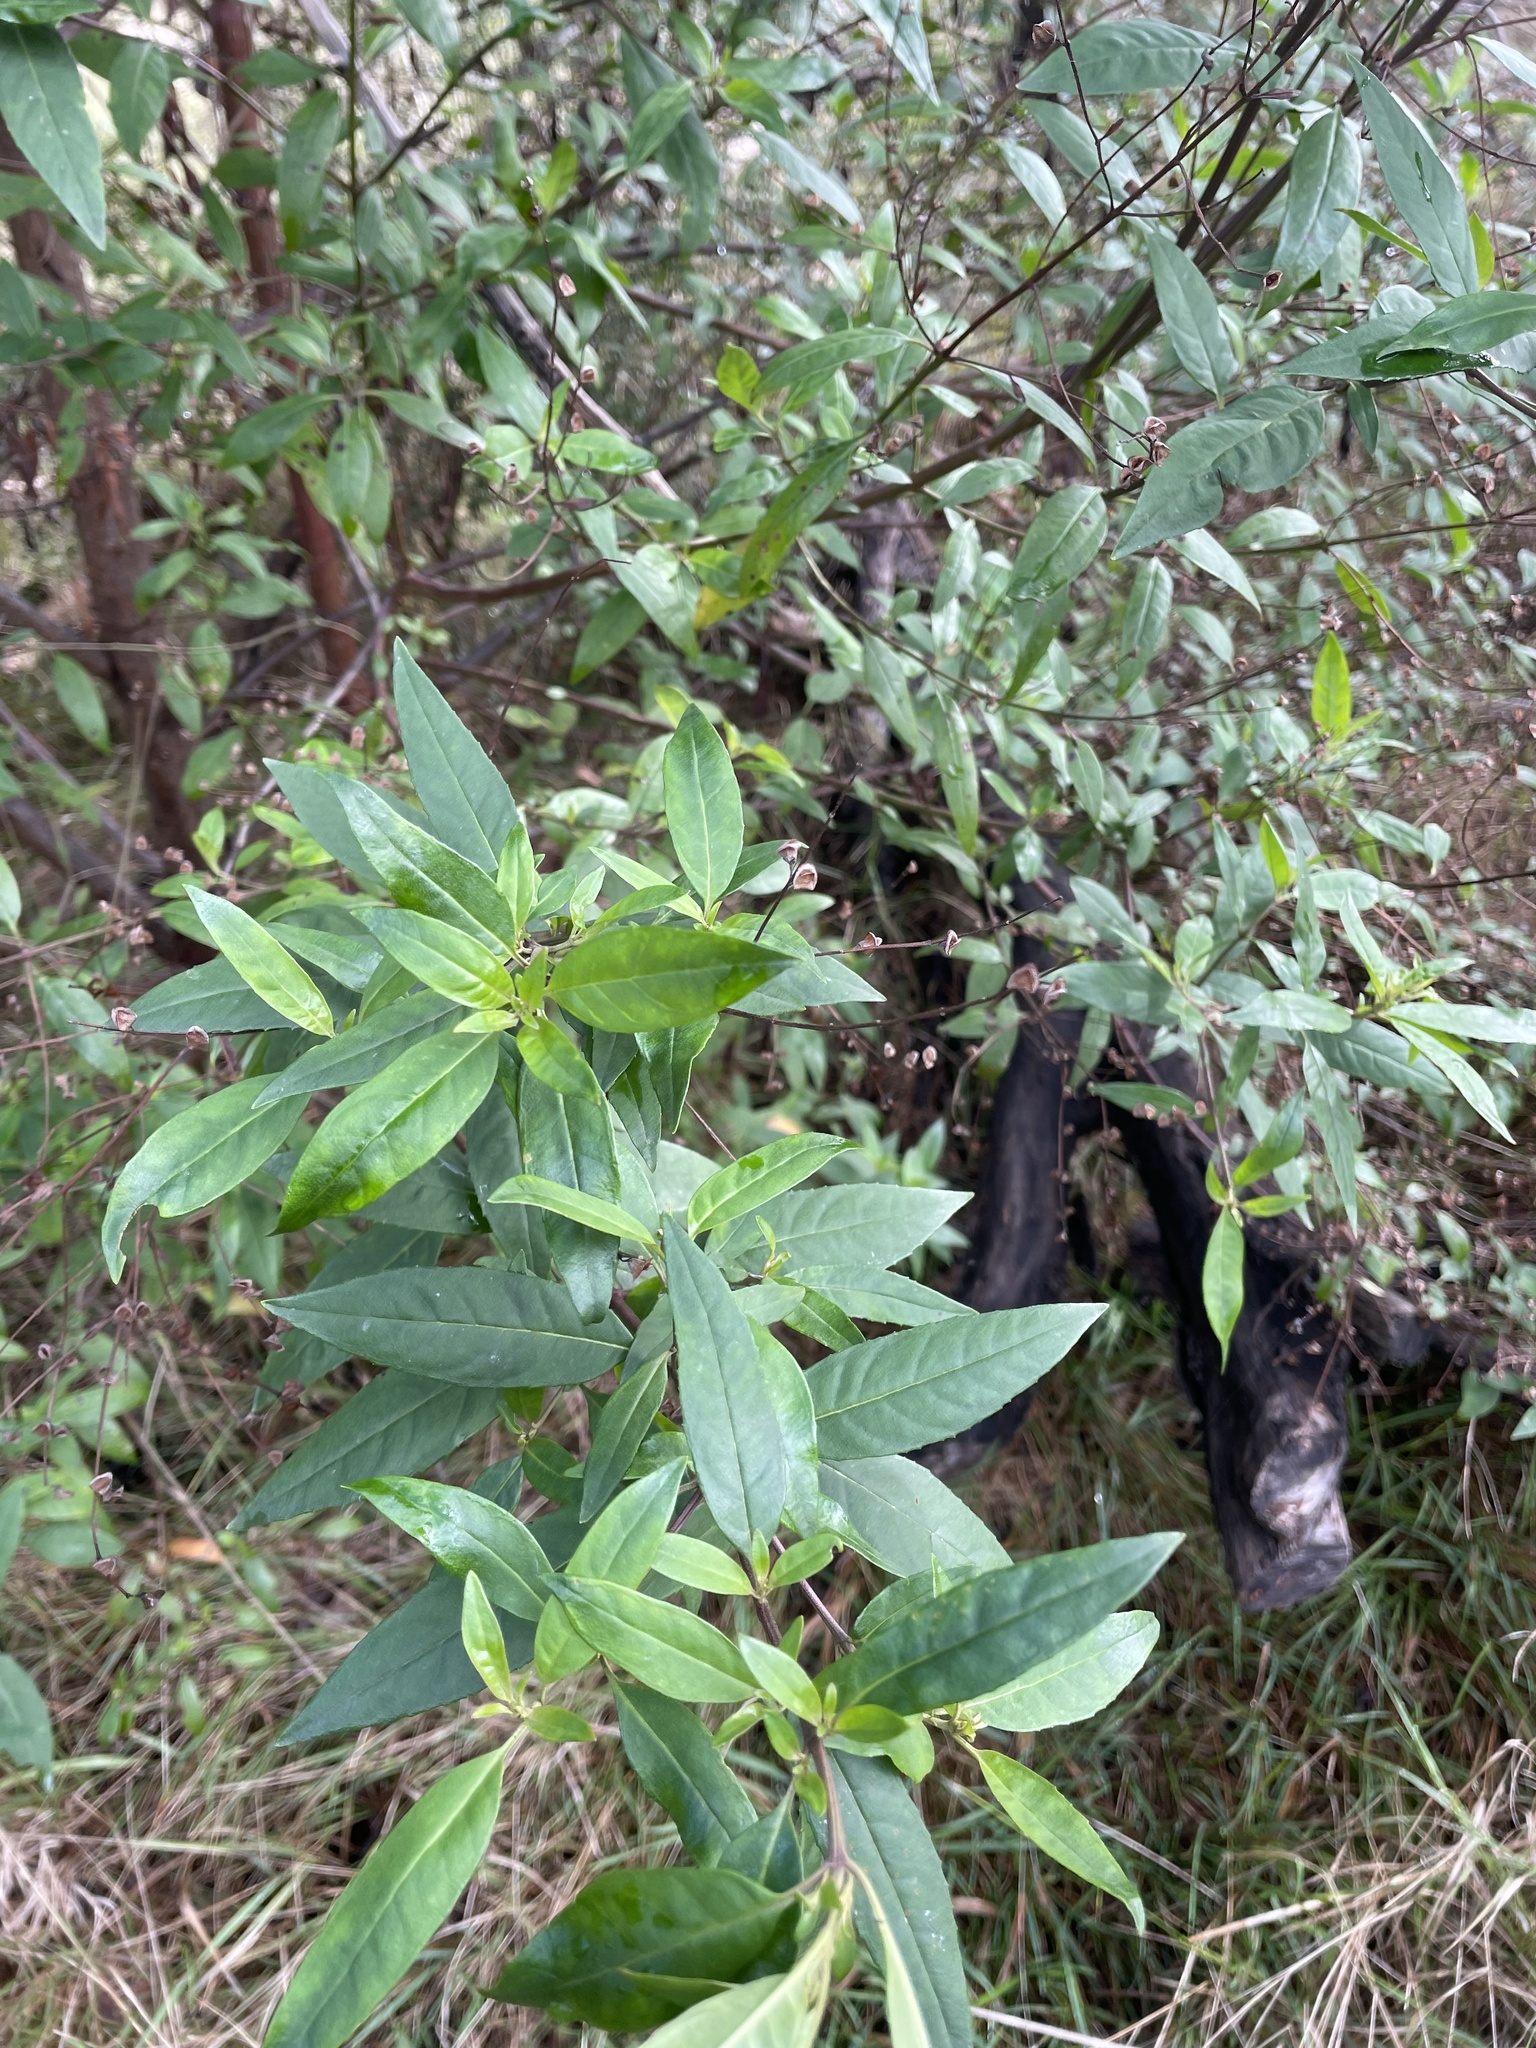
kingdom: Plantae
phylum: Tracheophyta
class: Magnoliopsida
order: Lamiales
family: Lamiaceae
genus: Prostanthera
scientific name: Prostanthera lasianthos
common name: Mountain-lilac
